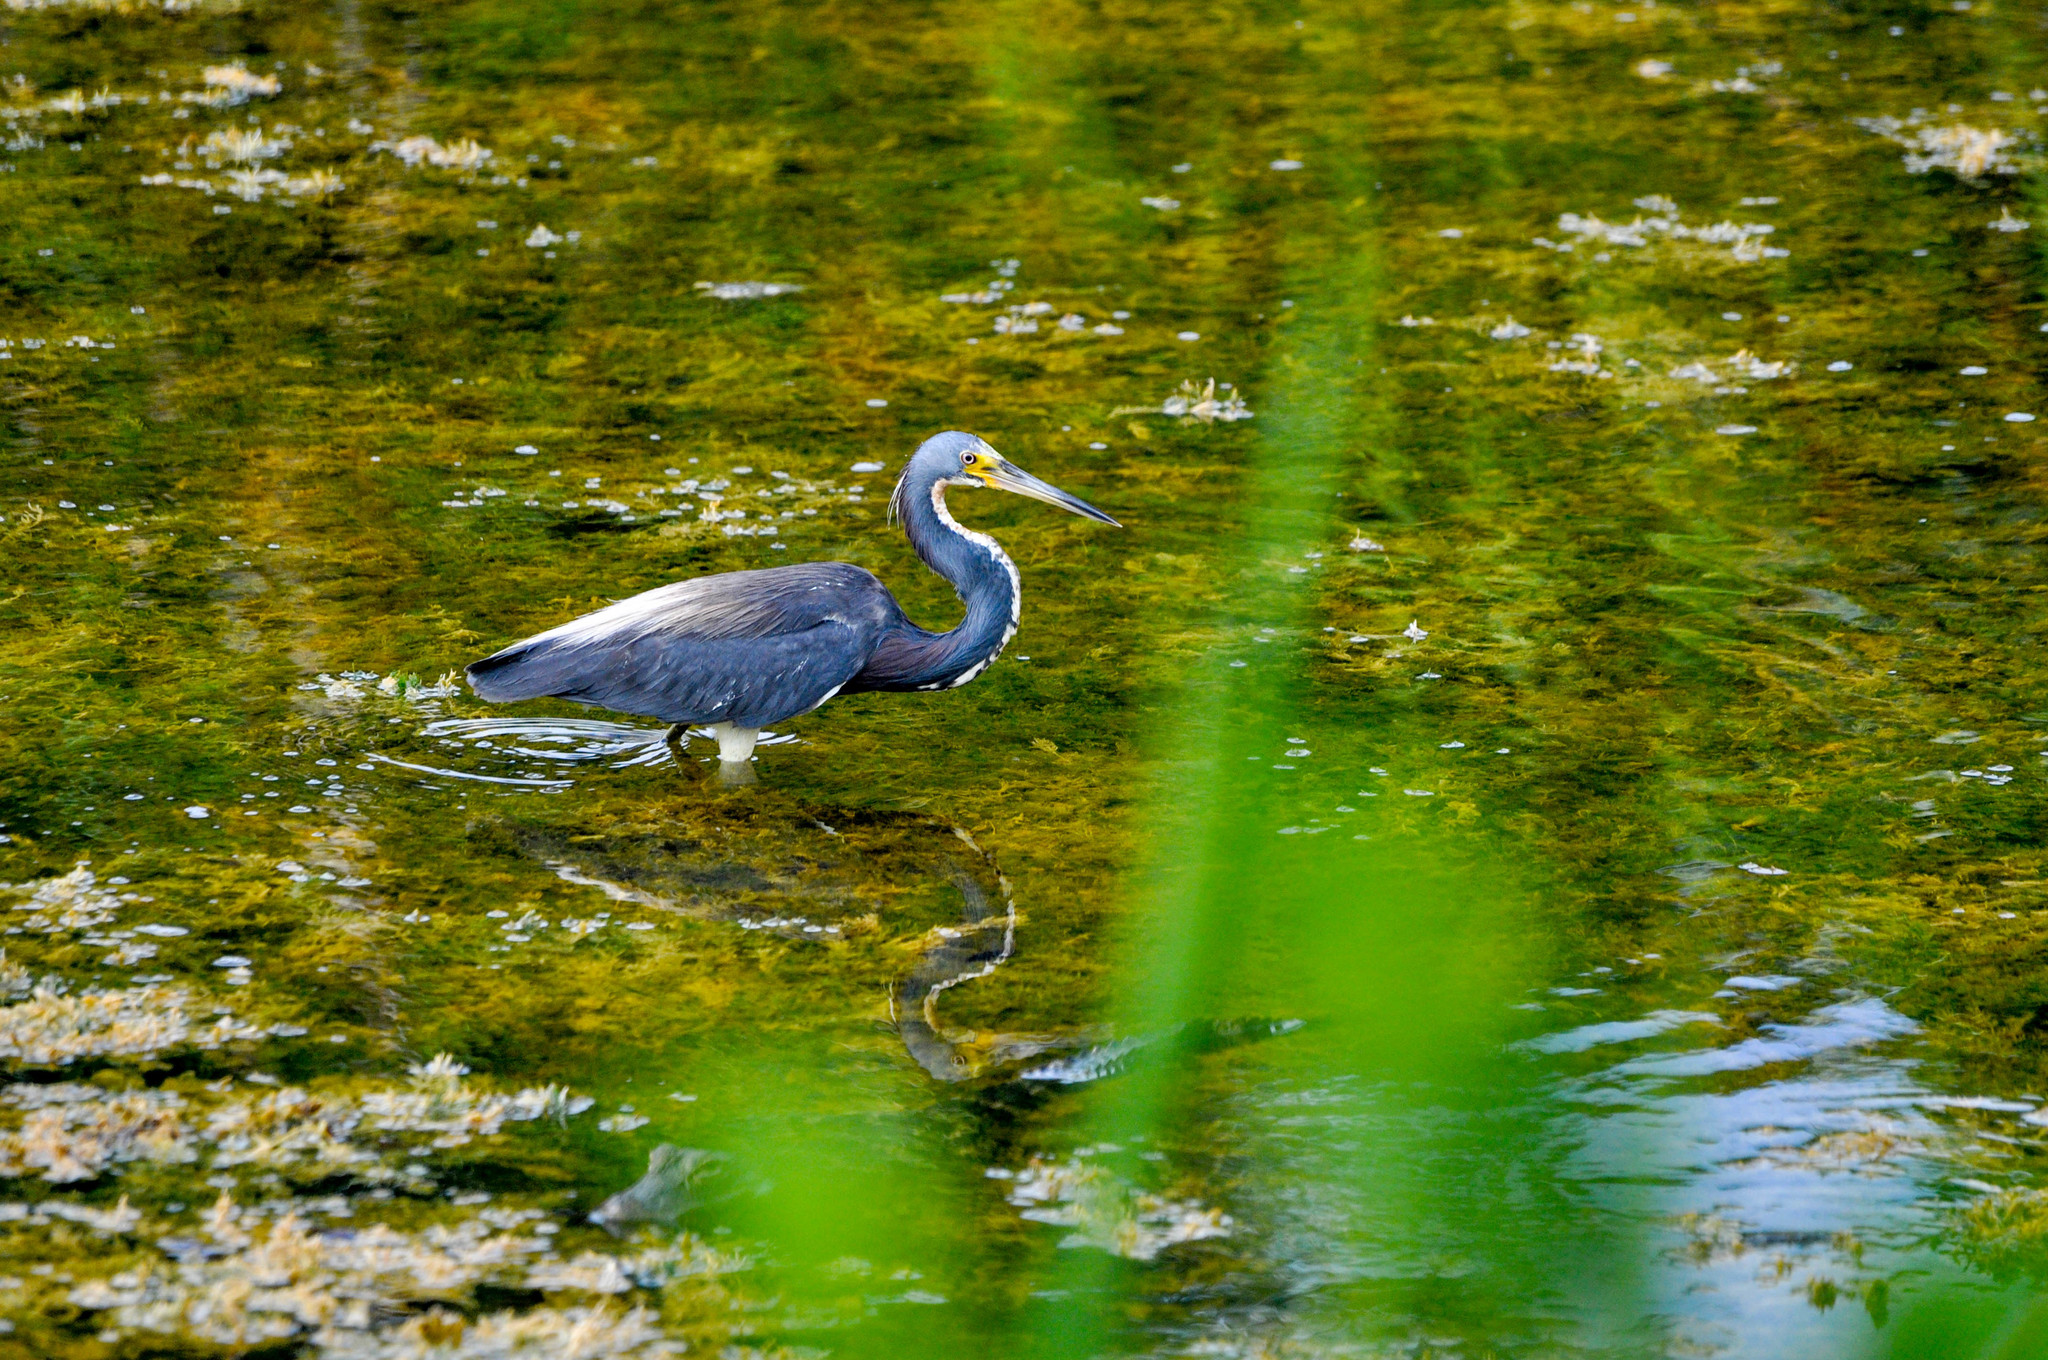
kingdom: Animalia
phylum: Chordata
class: Aves
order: Pelecaniformes
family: Ardeidae
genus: Egretta
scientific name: Egretta tricolor
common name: Tricolored heron
